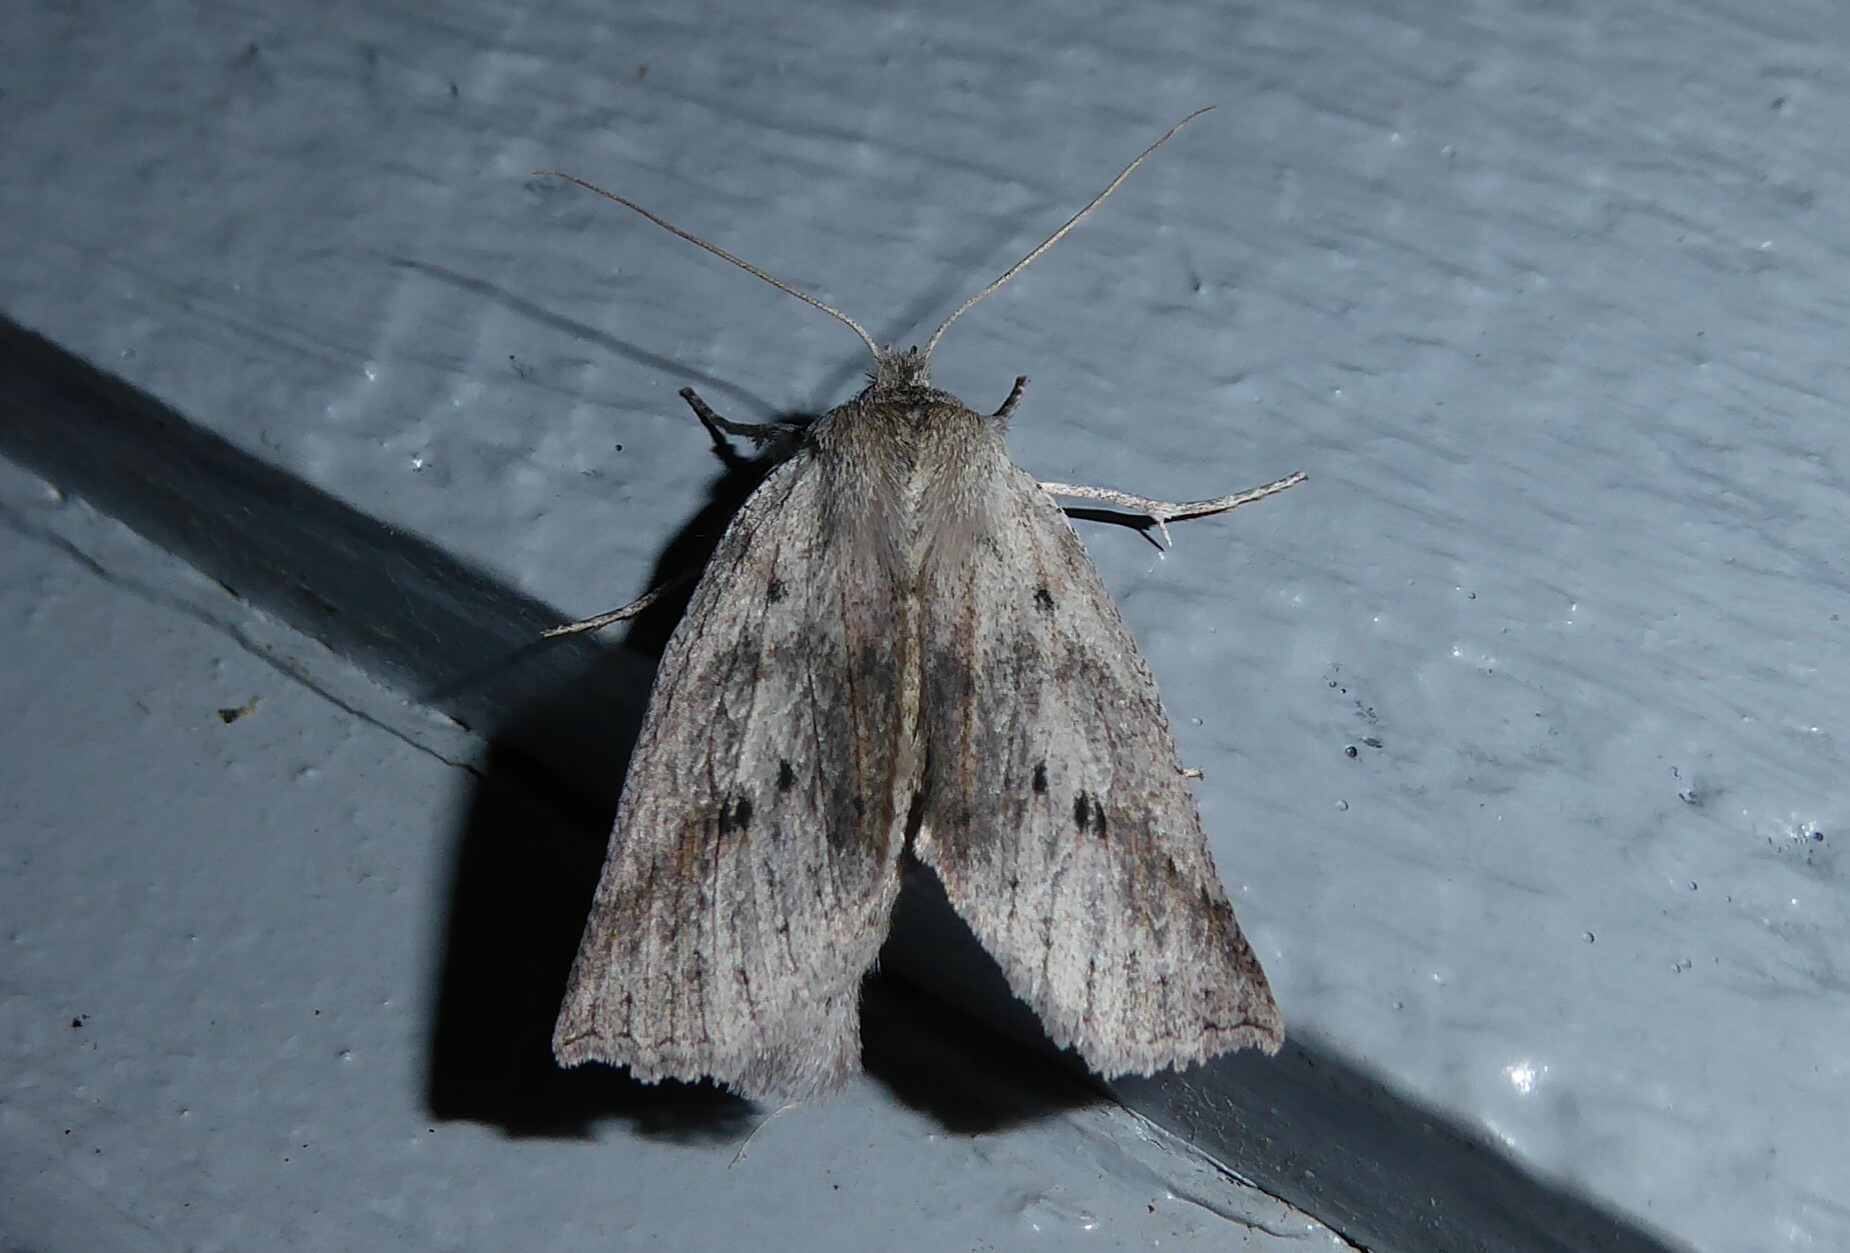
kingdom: Animalia
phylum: Arthropoda
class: Insecta
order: Lepidoptera
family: Geometridae
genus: Declana
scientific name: Declana leptomera
